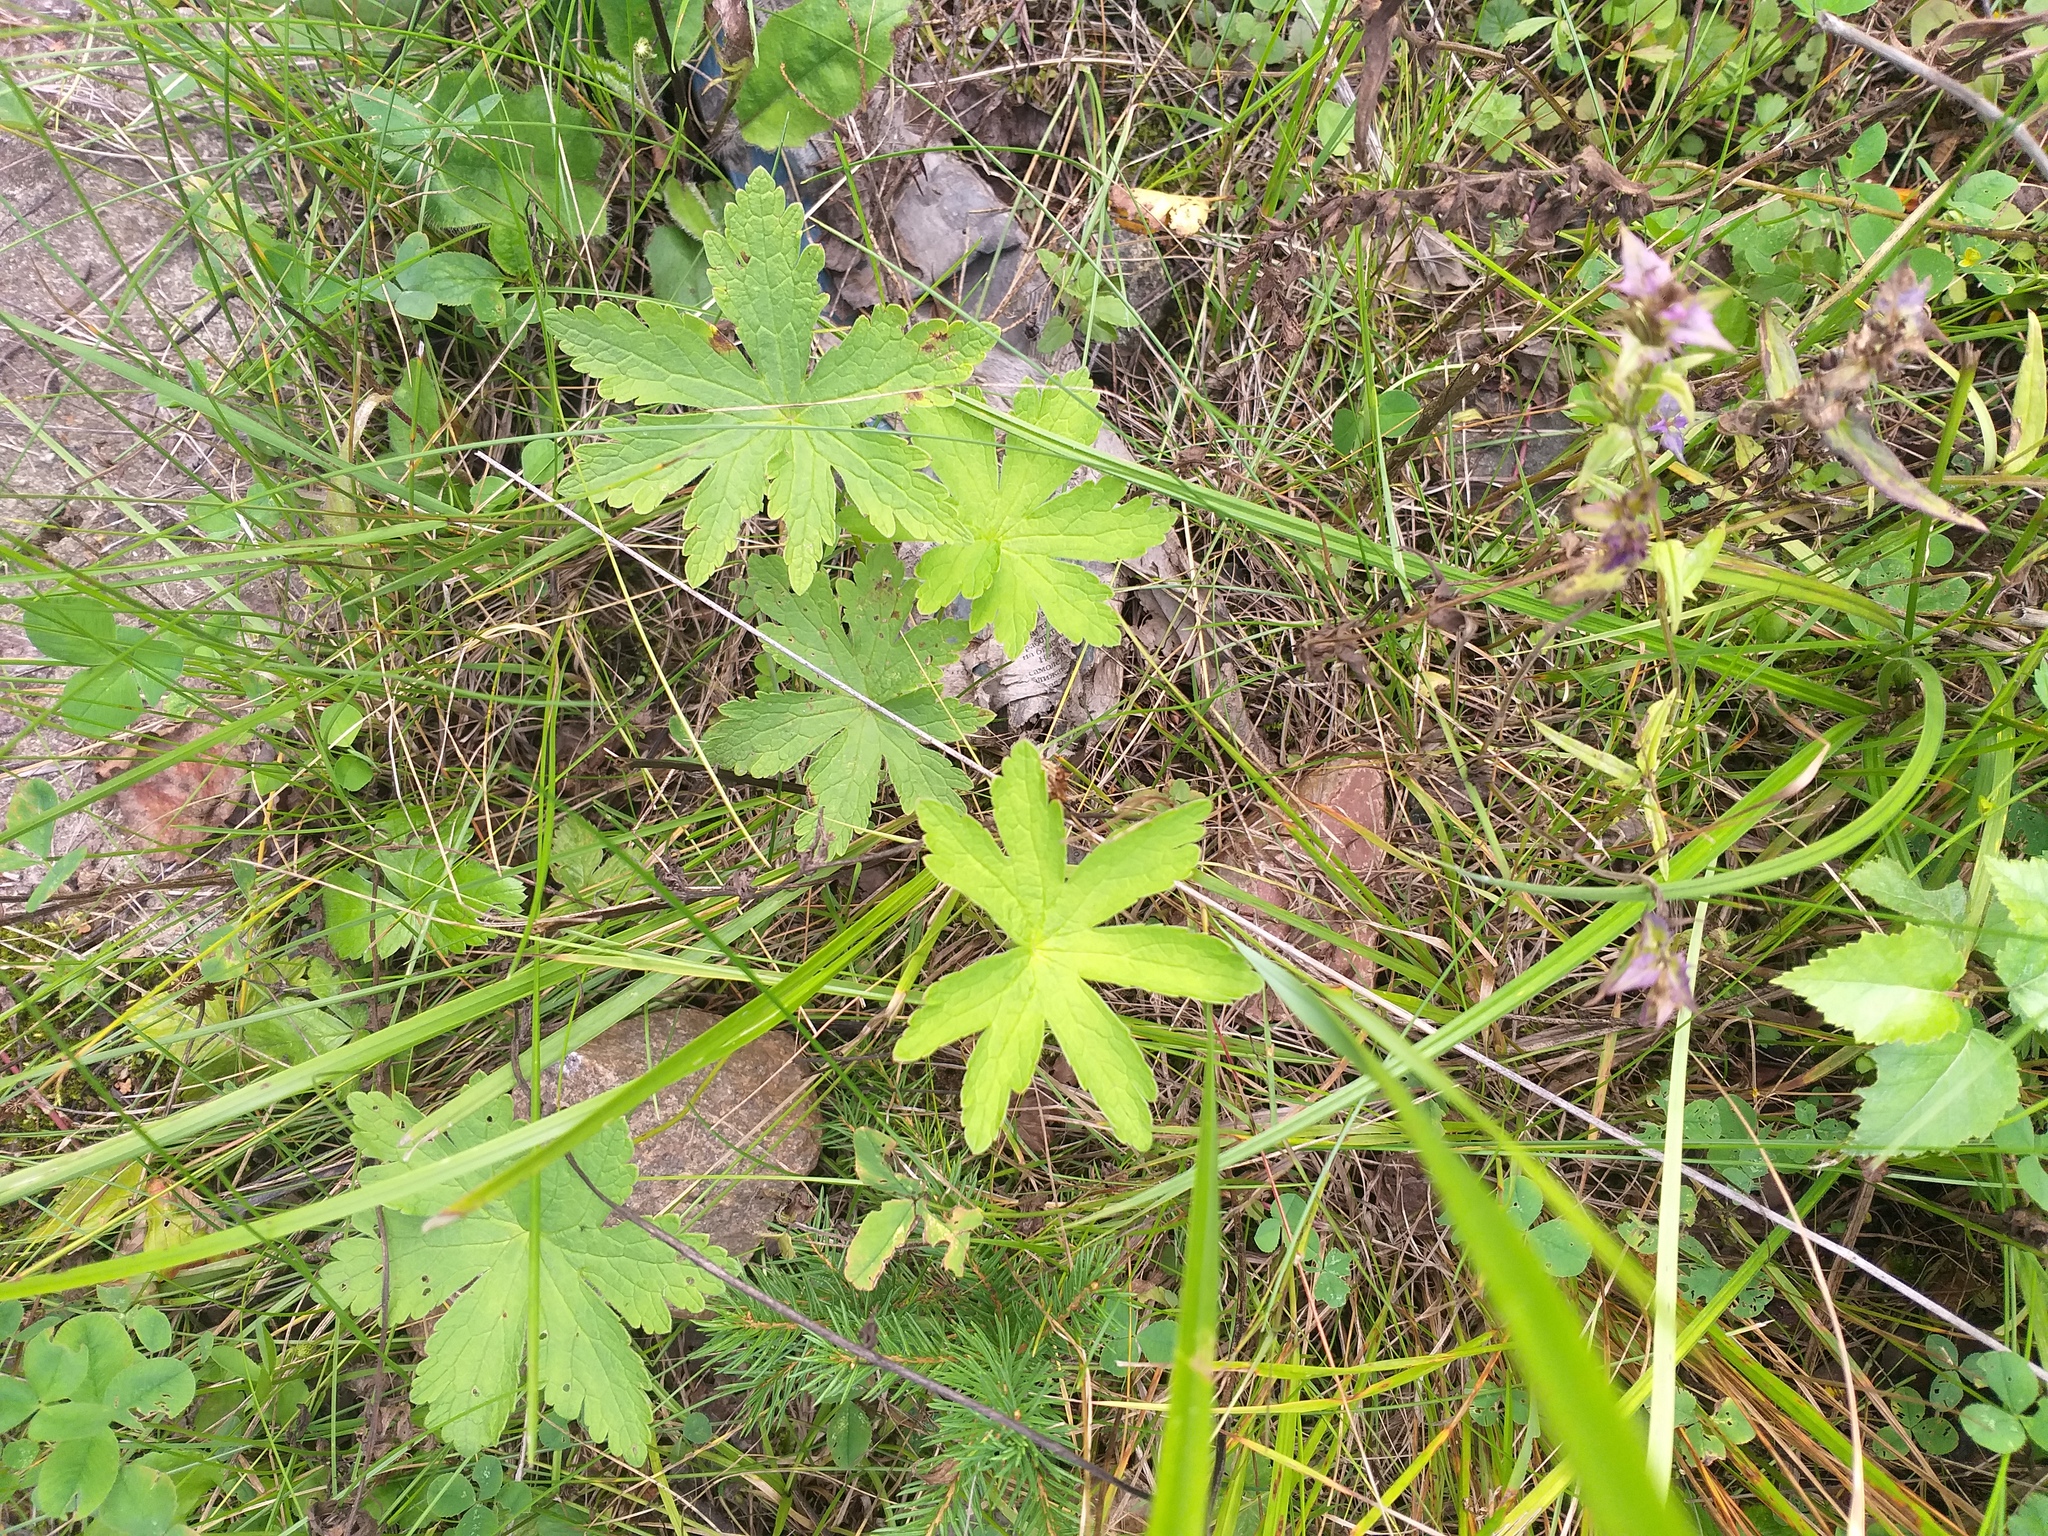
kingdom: Plantae
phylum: Tracheophyta
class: Magnoliopsida
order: Geraniales
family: Geraniaceae
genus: Geranium
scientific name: Geranium sylvaticum
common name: Wood crane's-bill
